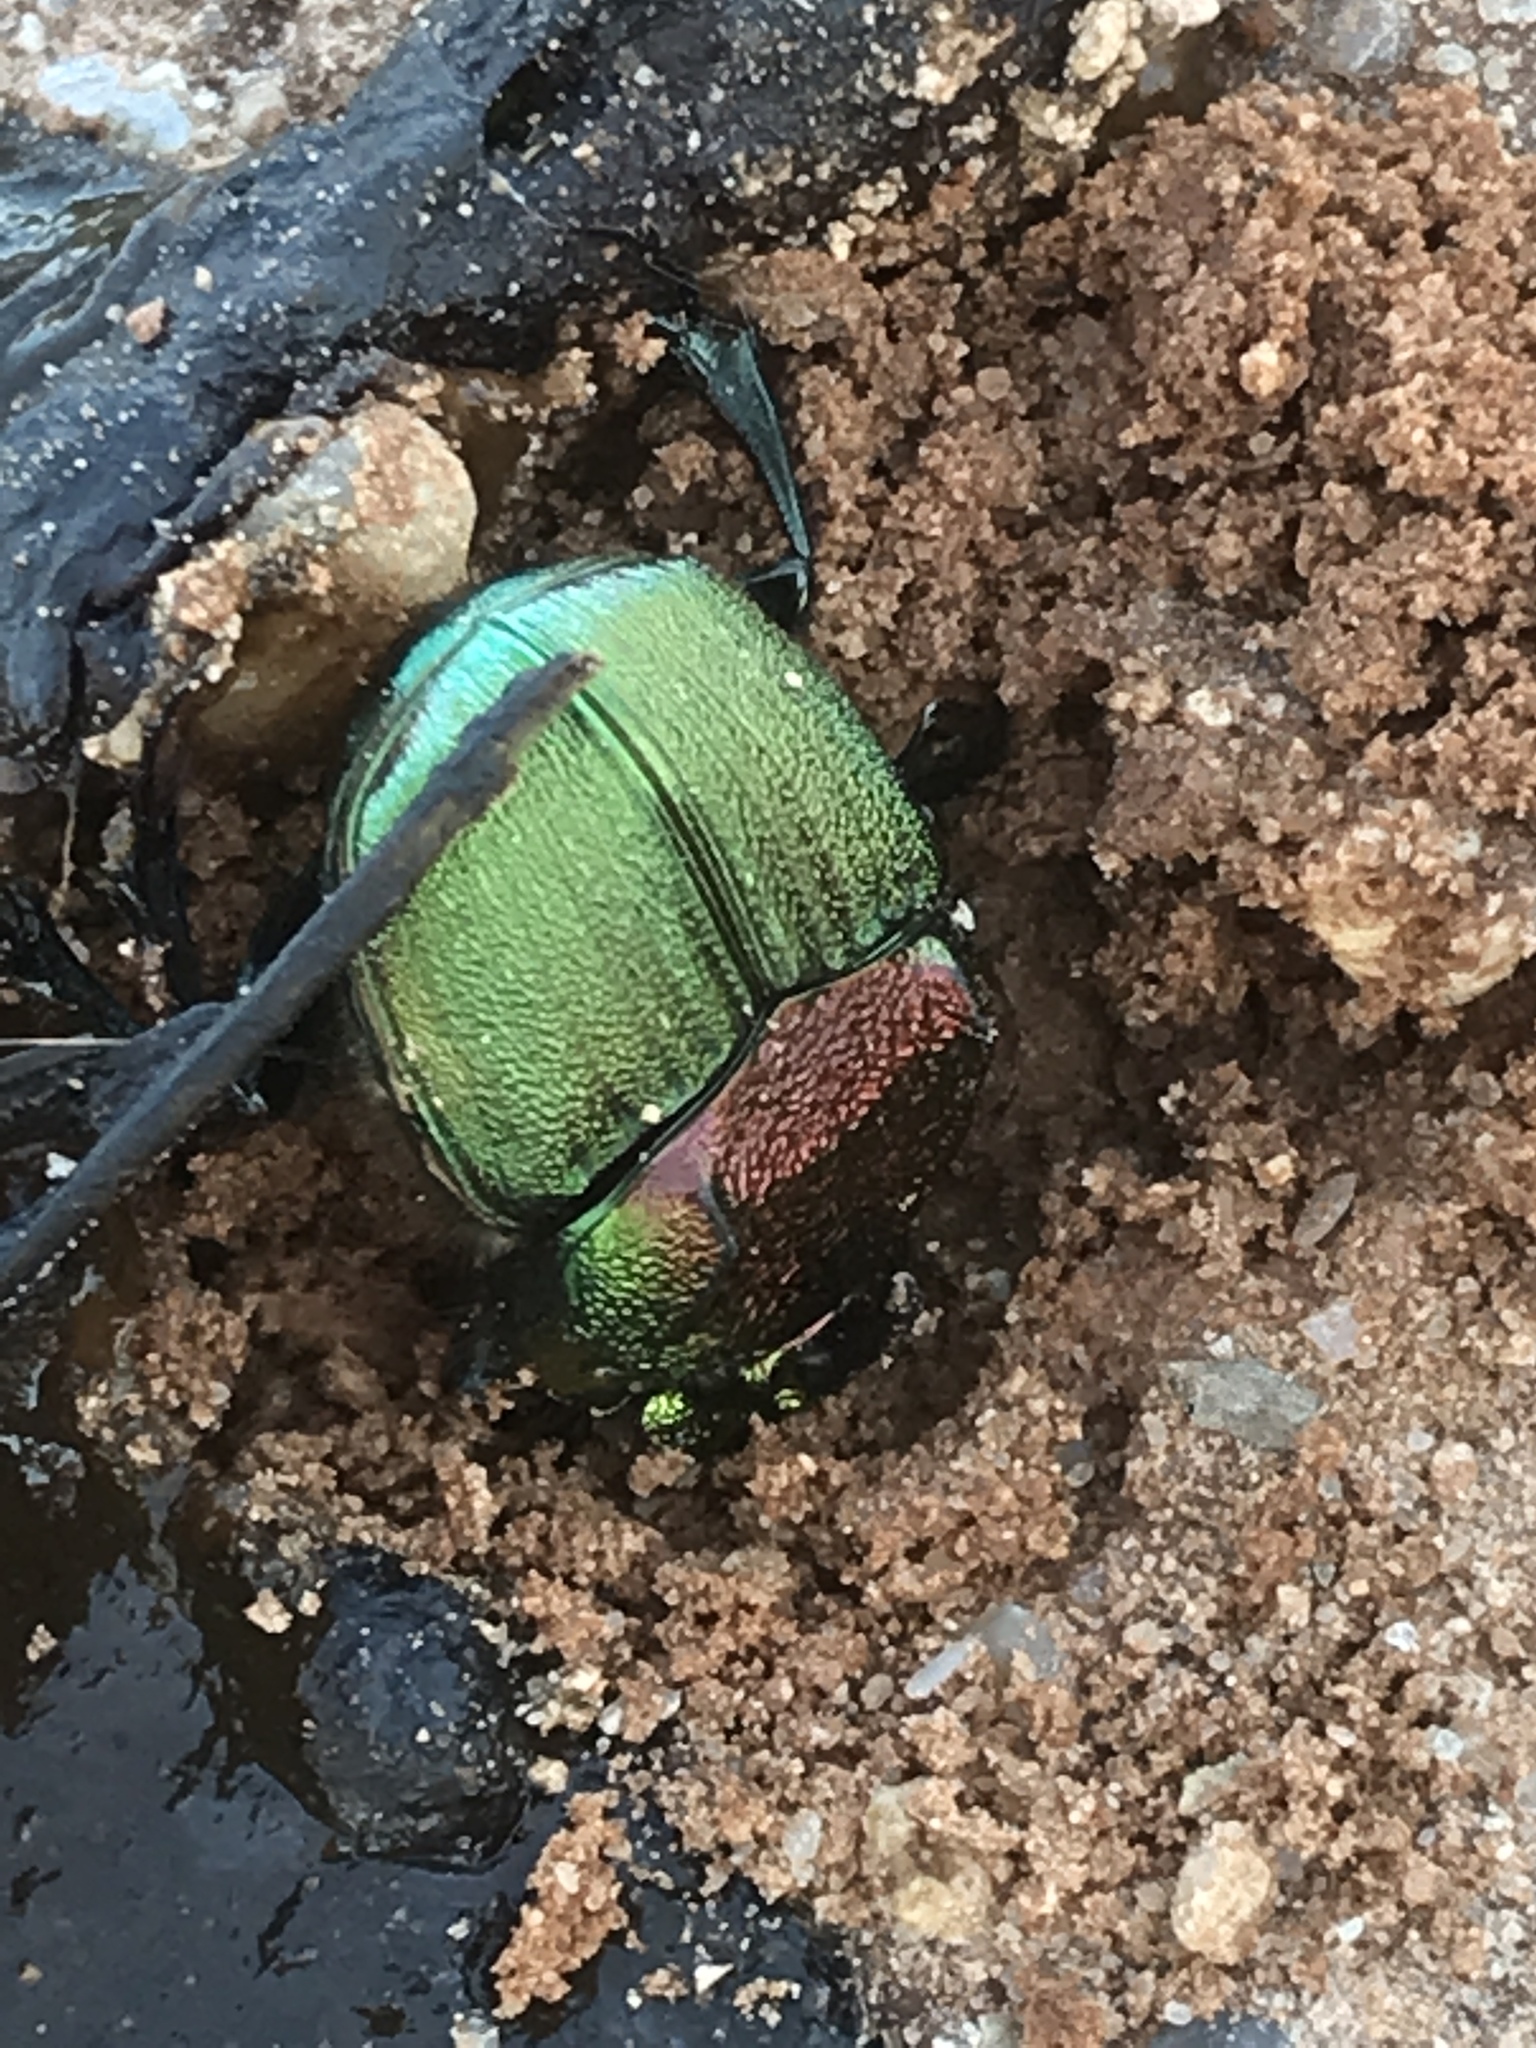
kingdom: Animalia
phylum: Arthropoda
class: Insecta
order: Coleoptera
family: Scarabaeidae
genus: Phanaeus
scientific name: Phanaeus difformis
